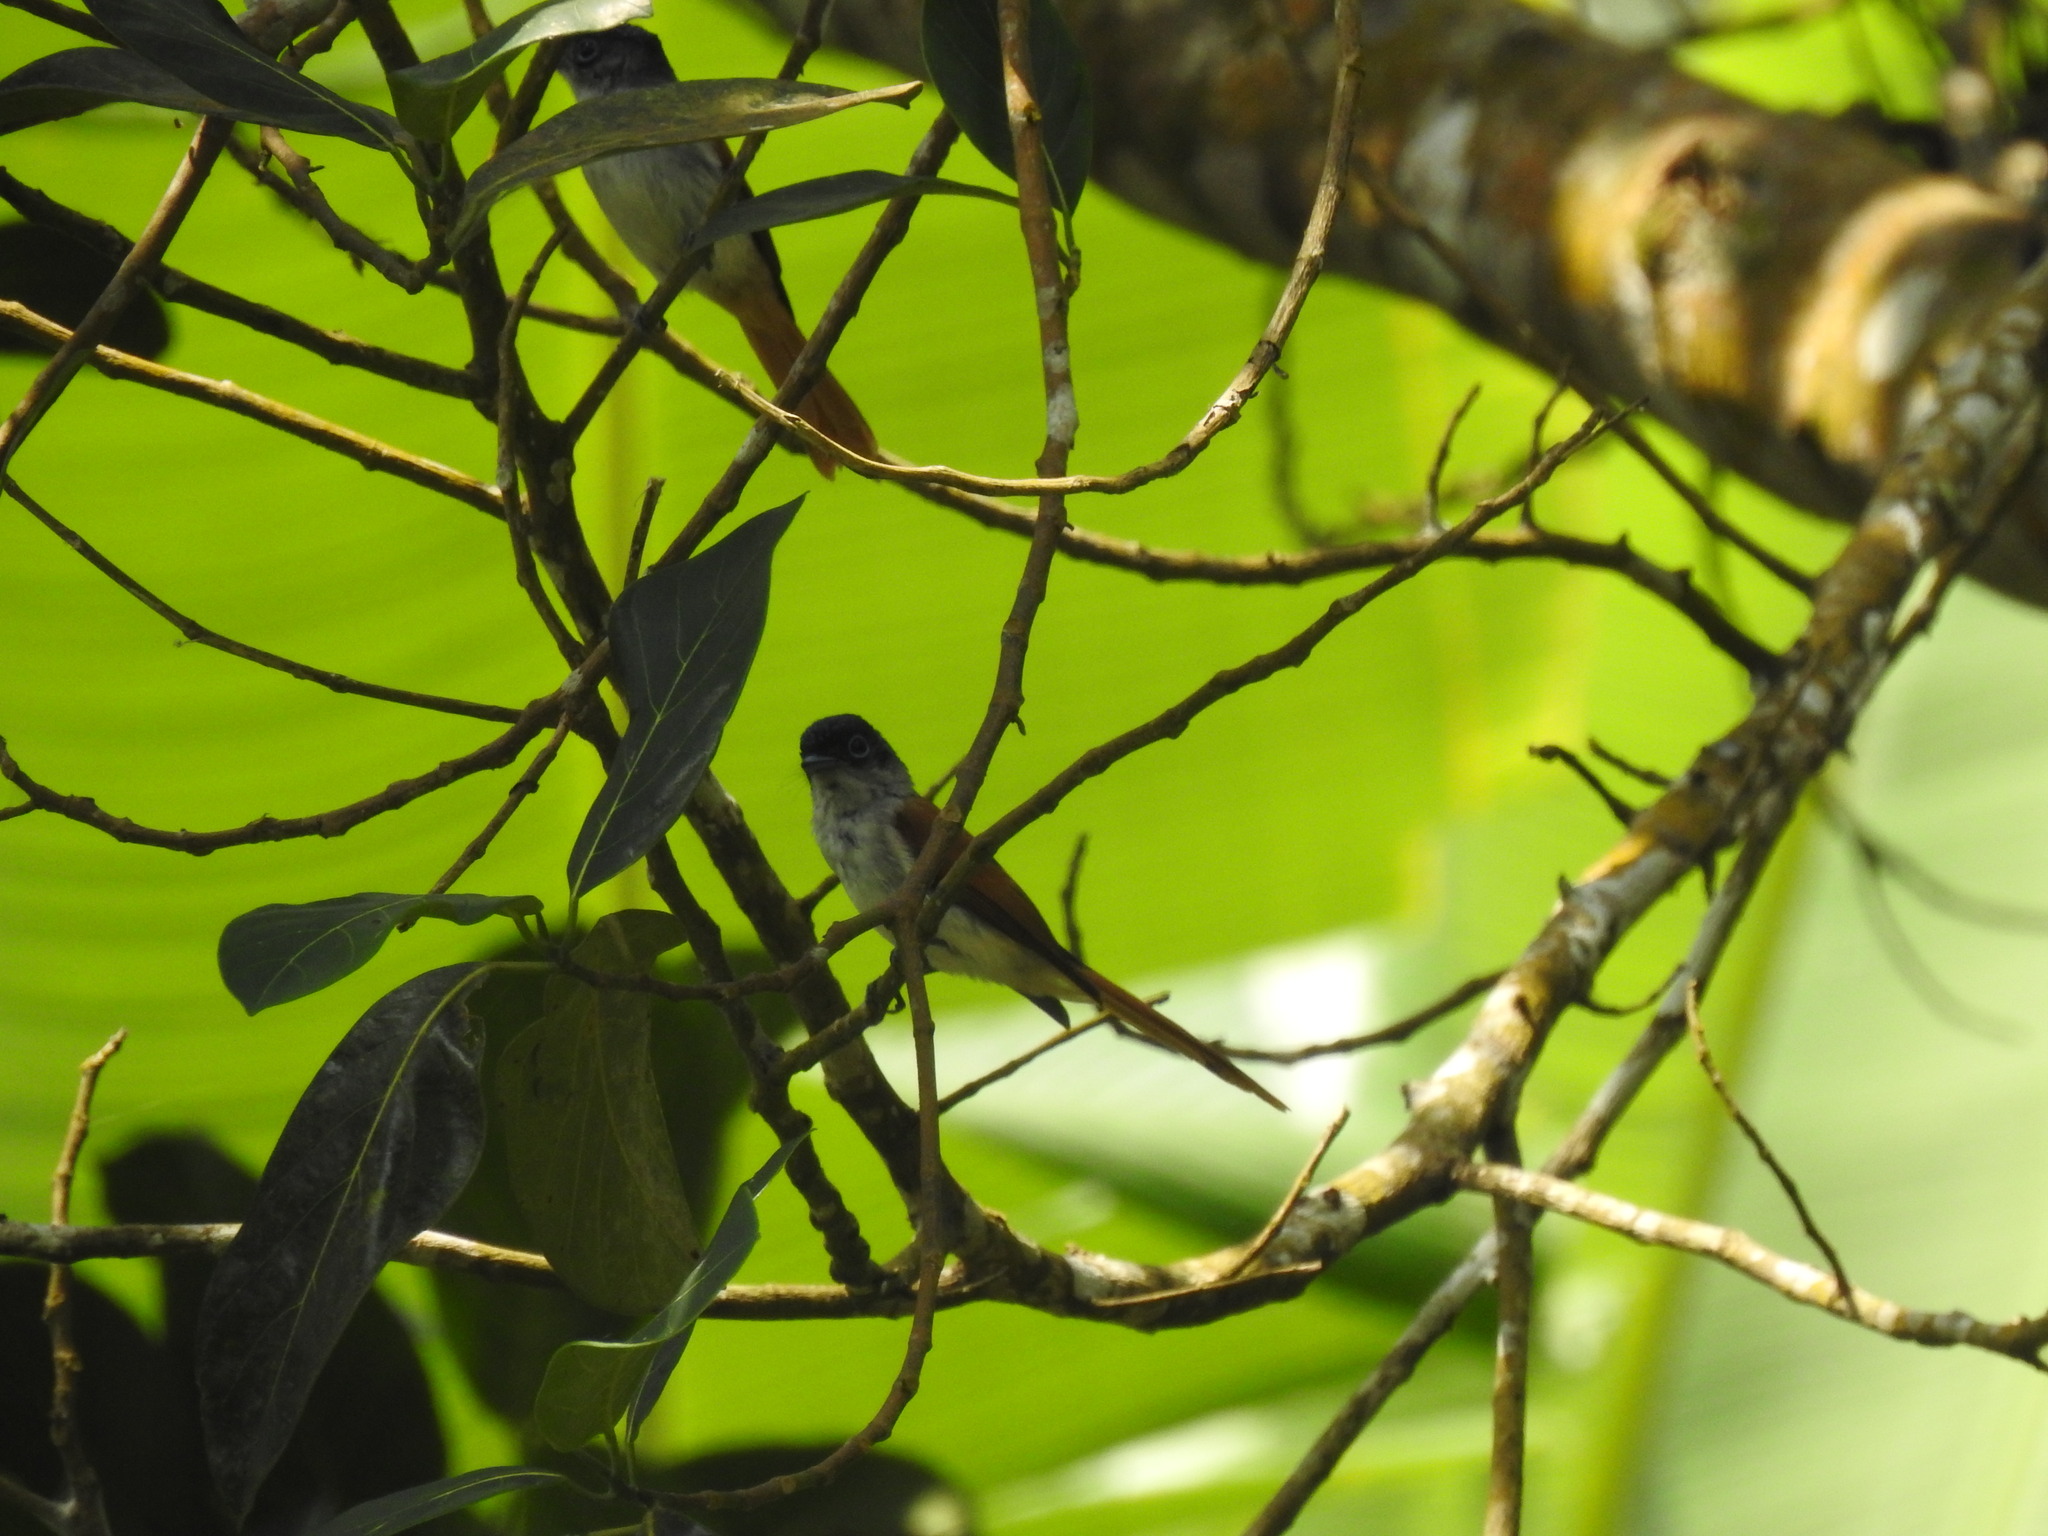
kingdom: Animalia
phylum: Chordata
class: Aves
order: Passeriformes
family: Monarchidae
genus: Terpsiphone
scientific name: Terpsiphone atrochalybeia
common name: Sao tome paradise flycatcher
